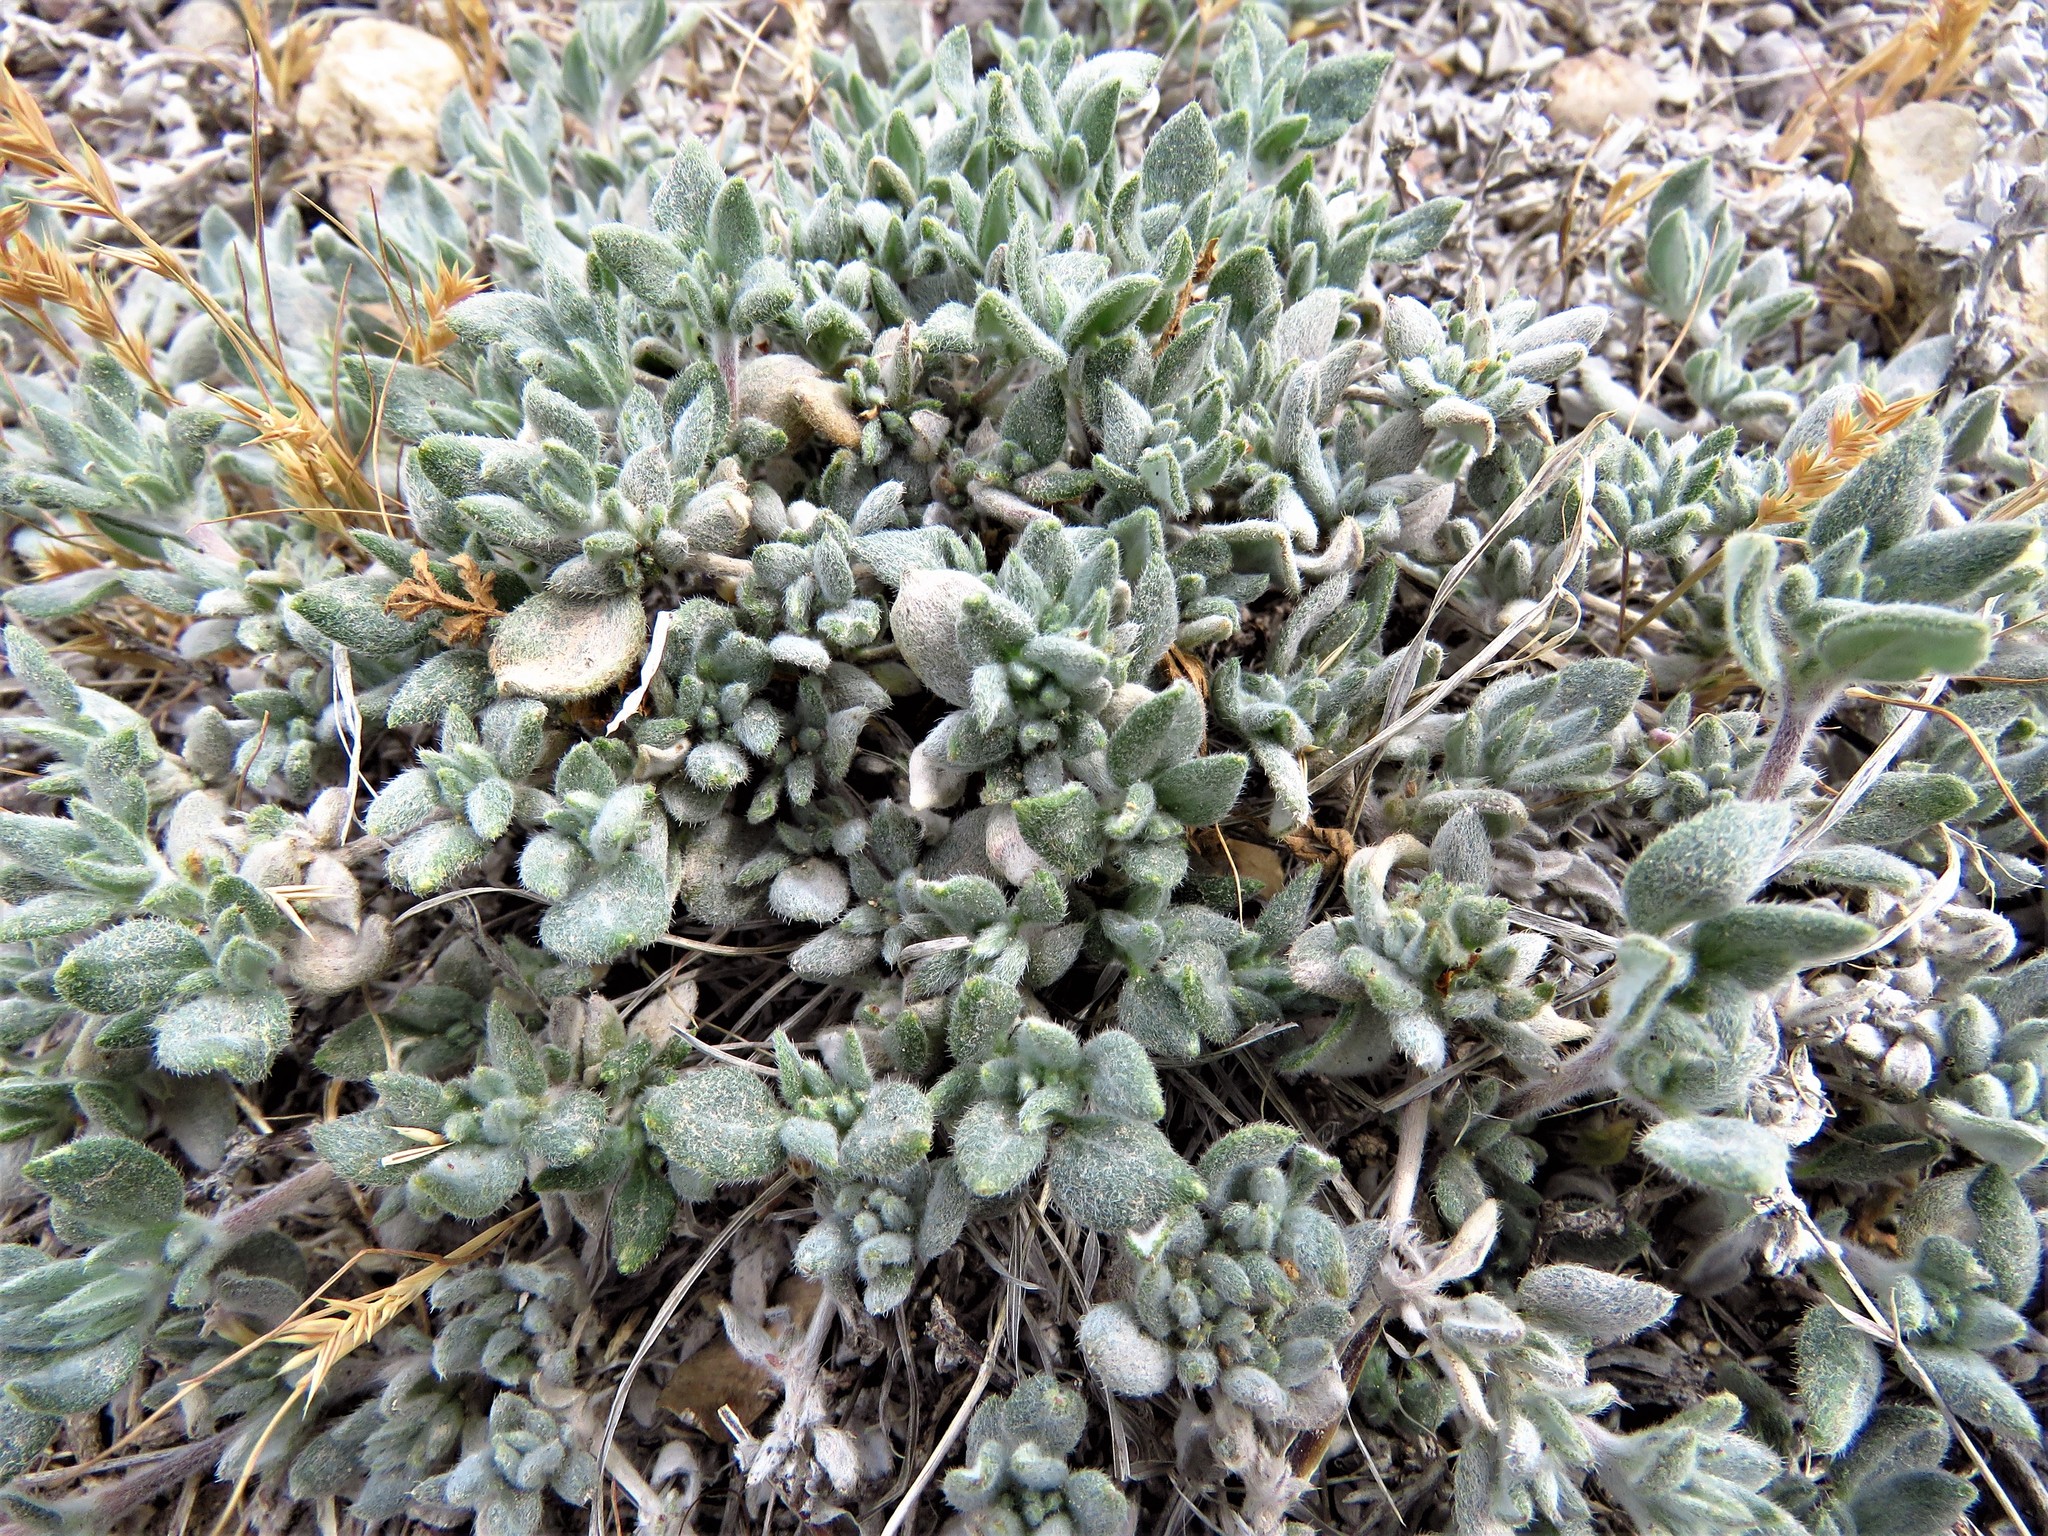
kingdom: Plantae
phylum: Tracheophyta
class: Magnoliopsida
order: Boraginales
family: Ehretiaceae
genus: Tiquilia
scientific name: Tiquilia canescens
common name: Hairy tiquilia
